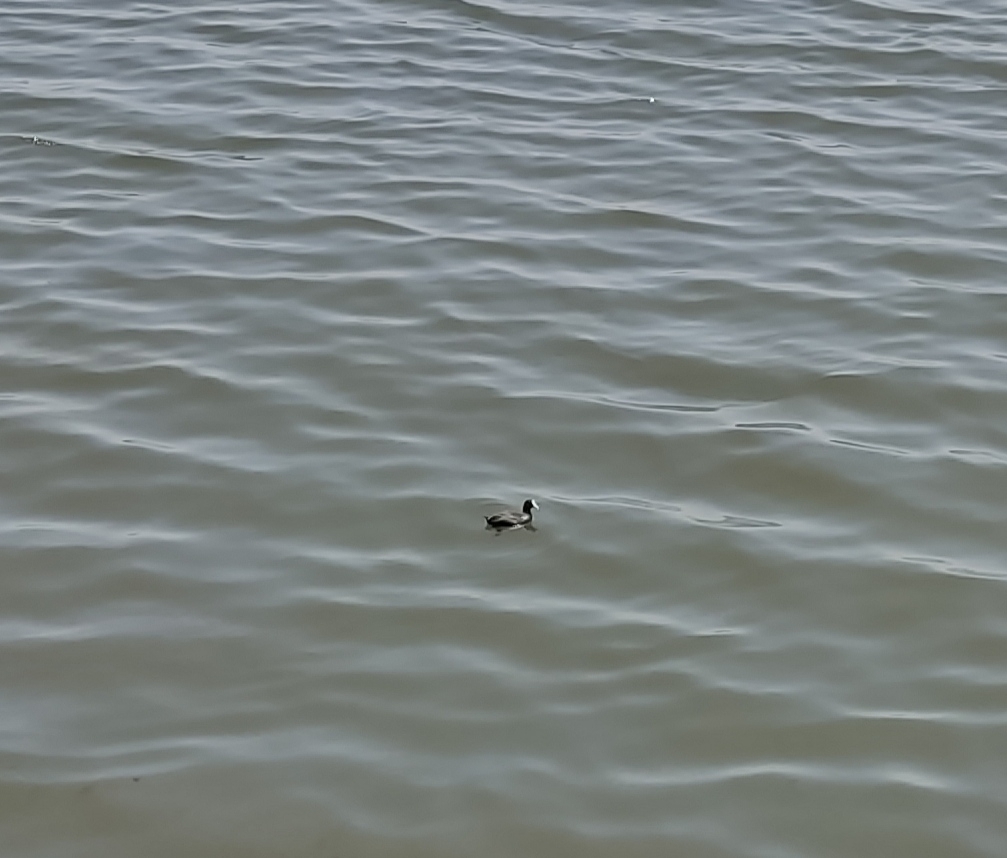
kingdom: Animalia
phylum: Chordata
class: Aves
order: Gruiformes
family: Rallidae
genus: Fulica
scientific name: Fulica atra
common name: Eurasian coot
